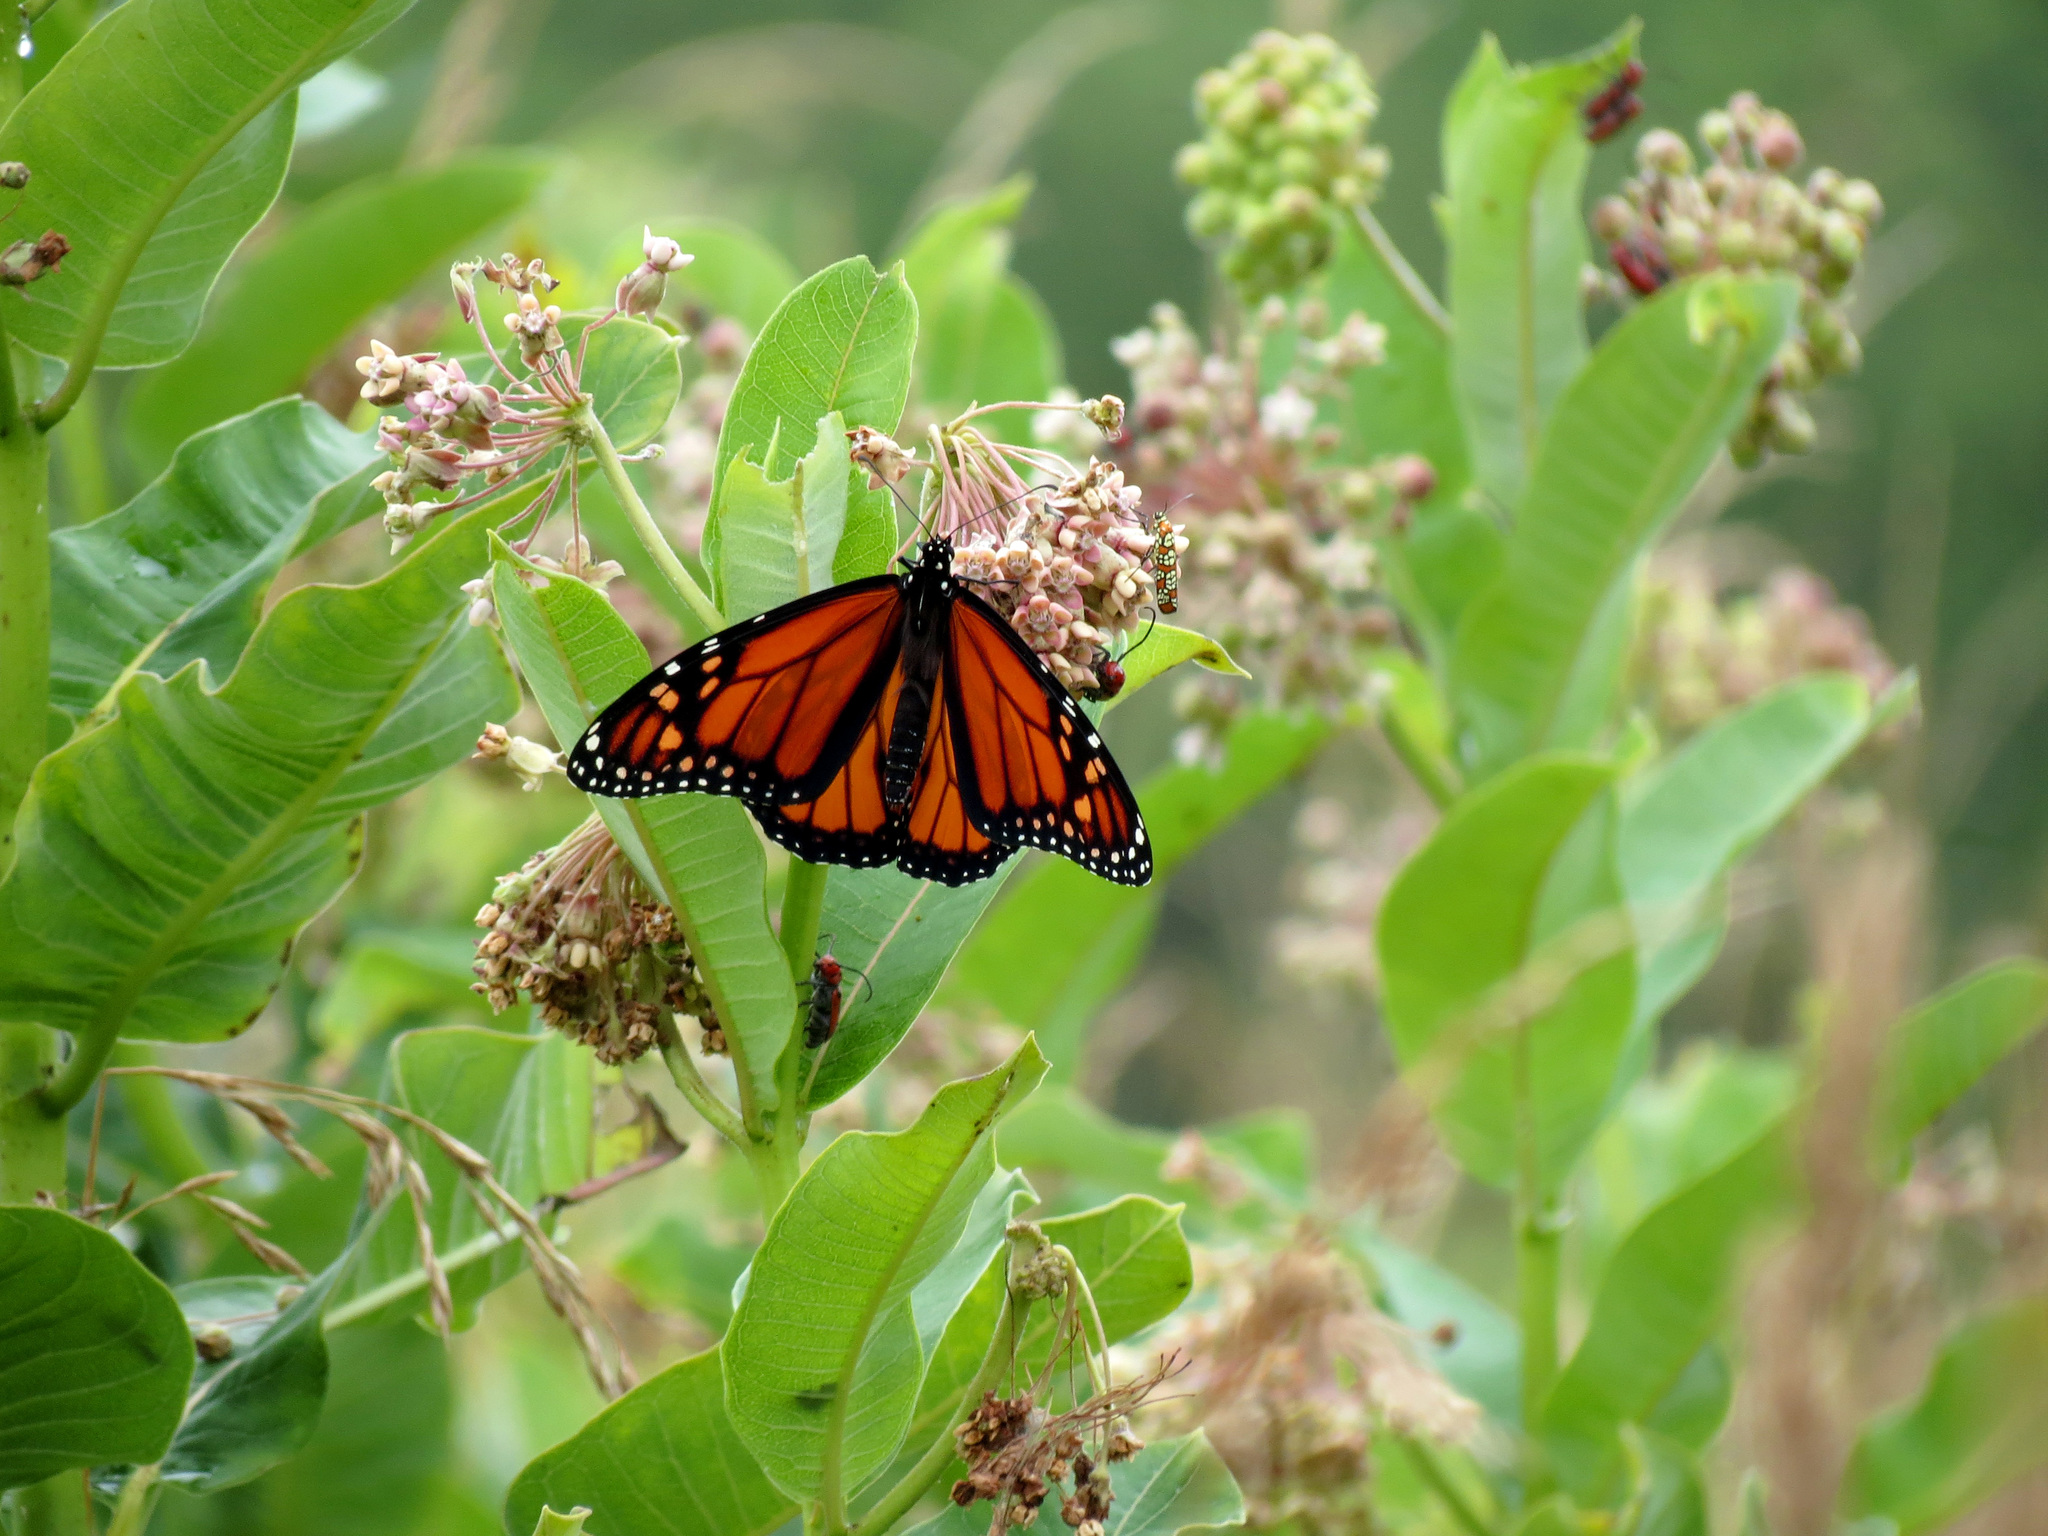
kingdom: Animalia
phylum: Arthropoda
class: Insecta
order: Lepidoptera
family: Nymphalidae
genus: Danaus
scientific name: Danaus plexippus
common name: Monarch
